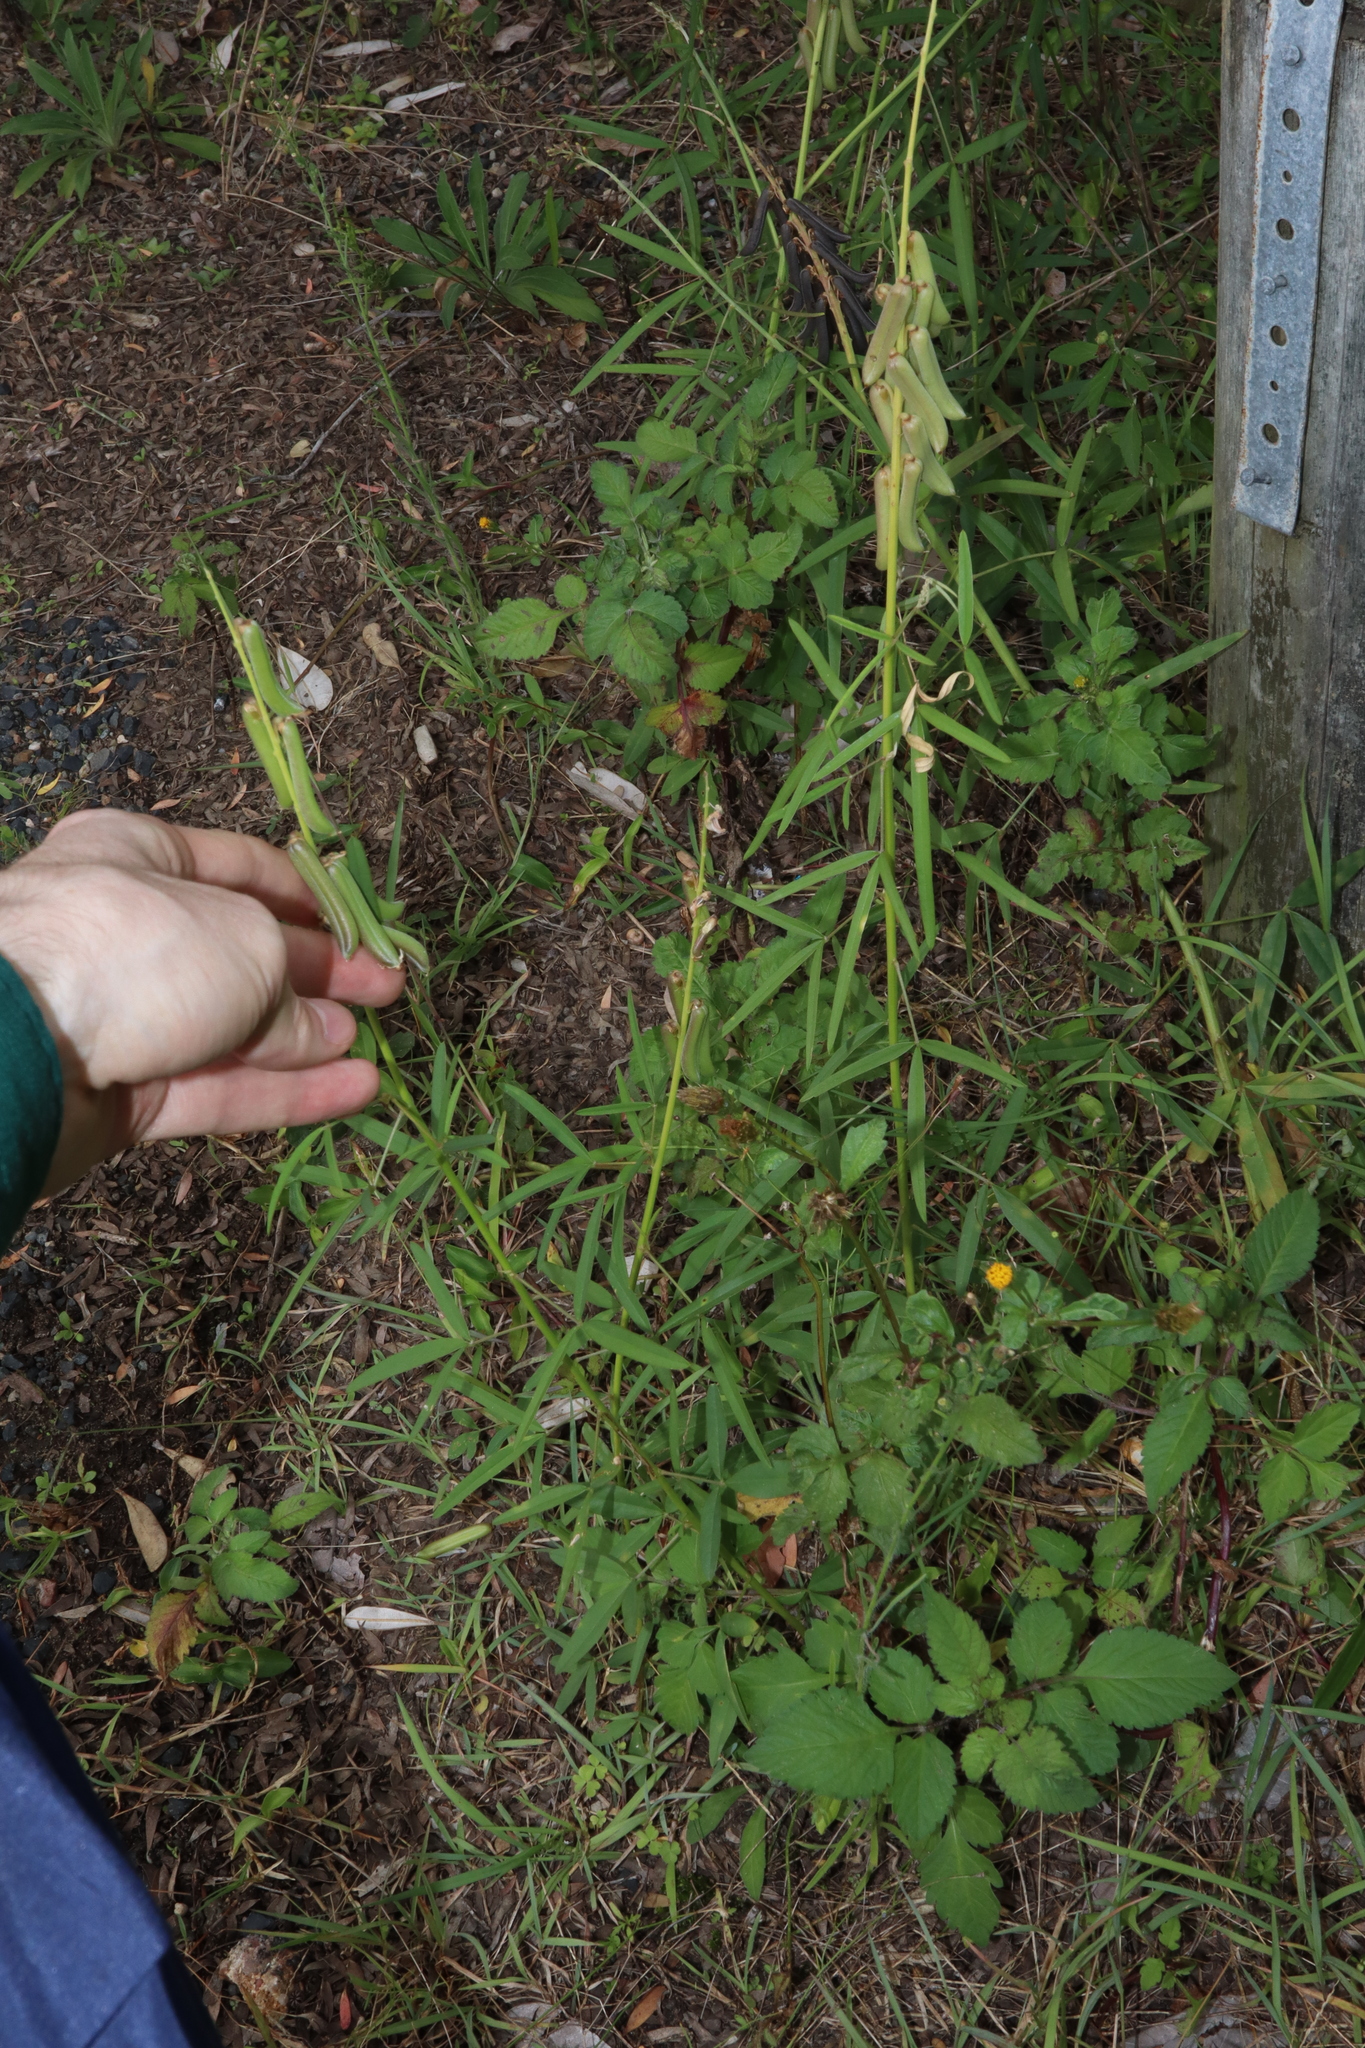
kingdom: Plantae
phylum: Tracheophyta
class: Magnoliopsida
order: Fabales
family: Fabaceae
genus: Crotalaria
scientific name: Crotalaria lanceolata
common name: Lanceleaf rattlebox
